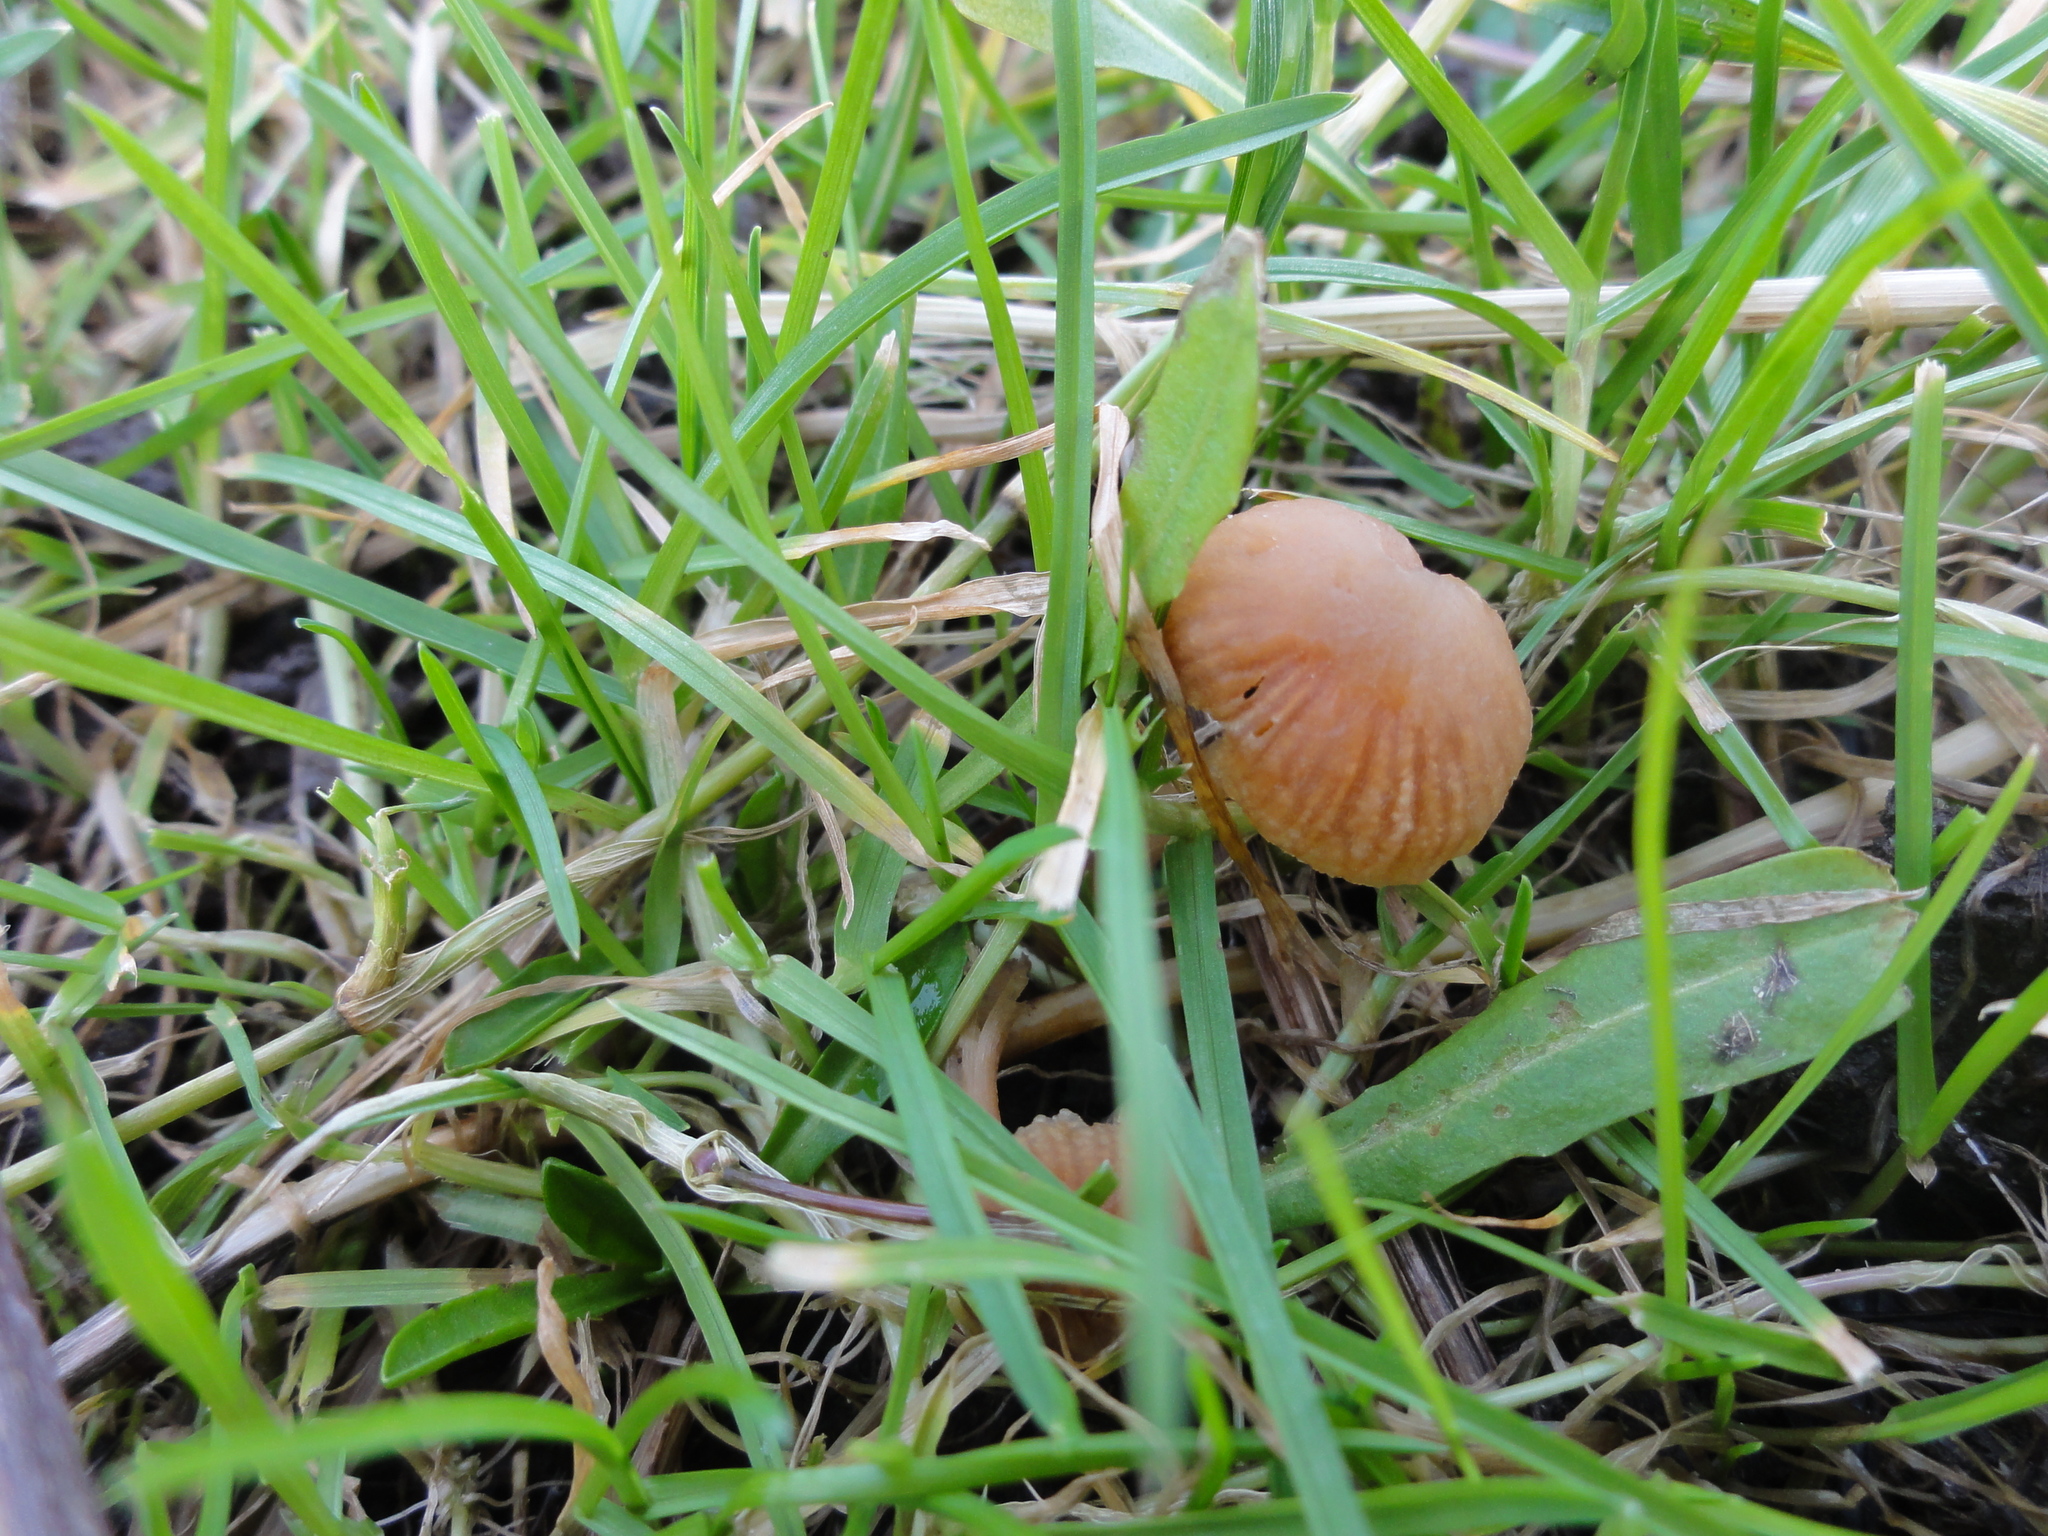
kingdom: Fungi
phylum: Basidiomycota
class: Agaricomycetes
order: Agaricales
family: Hydnangiaceae
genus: Laccaria
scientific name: Laccaria laccata
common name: Deceiver
